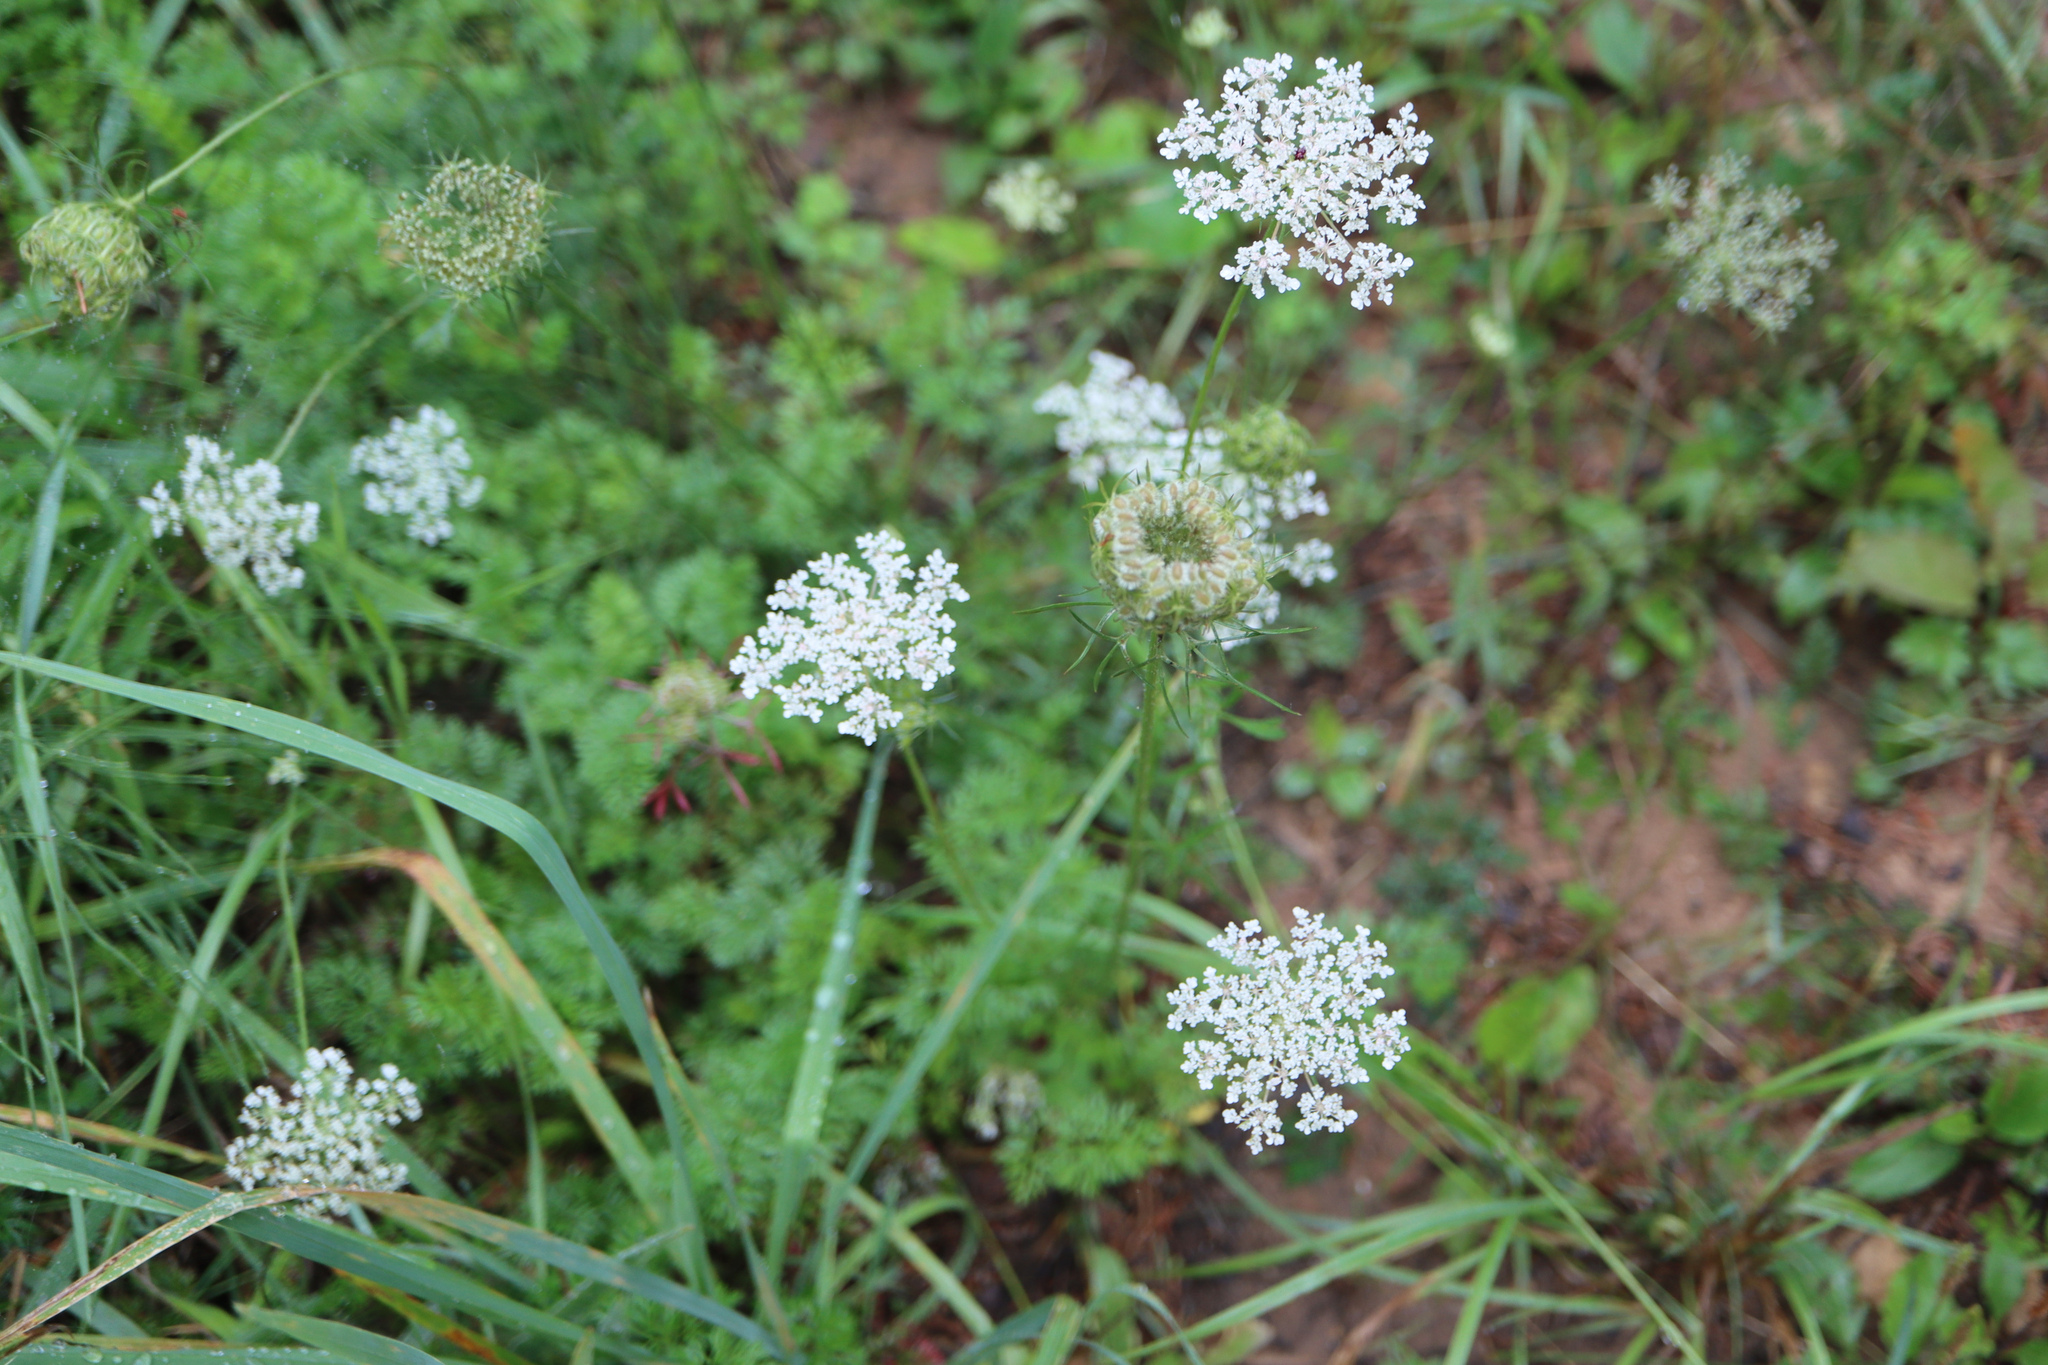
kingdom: Plantae
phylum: Tracheophyta
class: Magnoliopsida
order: Apiales
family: Apiaceae
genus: Daucus
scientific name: Daucus carota
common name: Wild carrot
